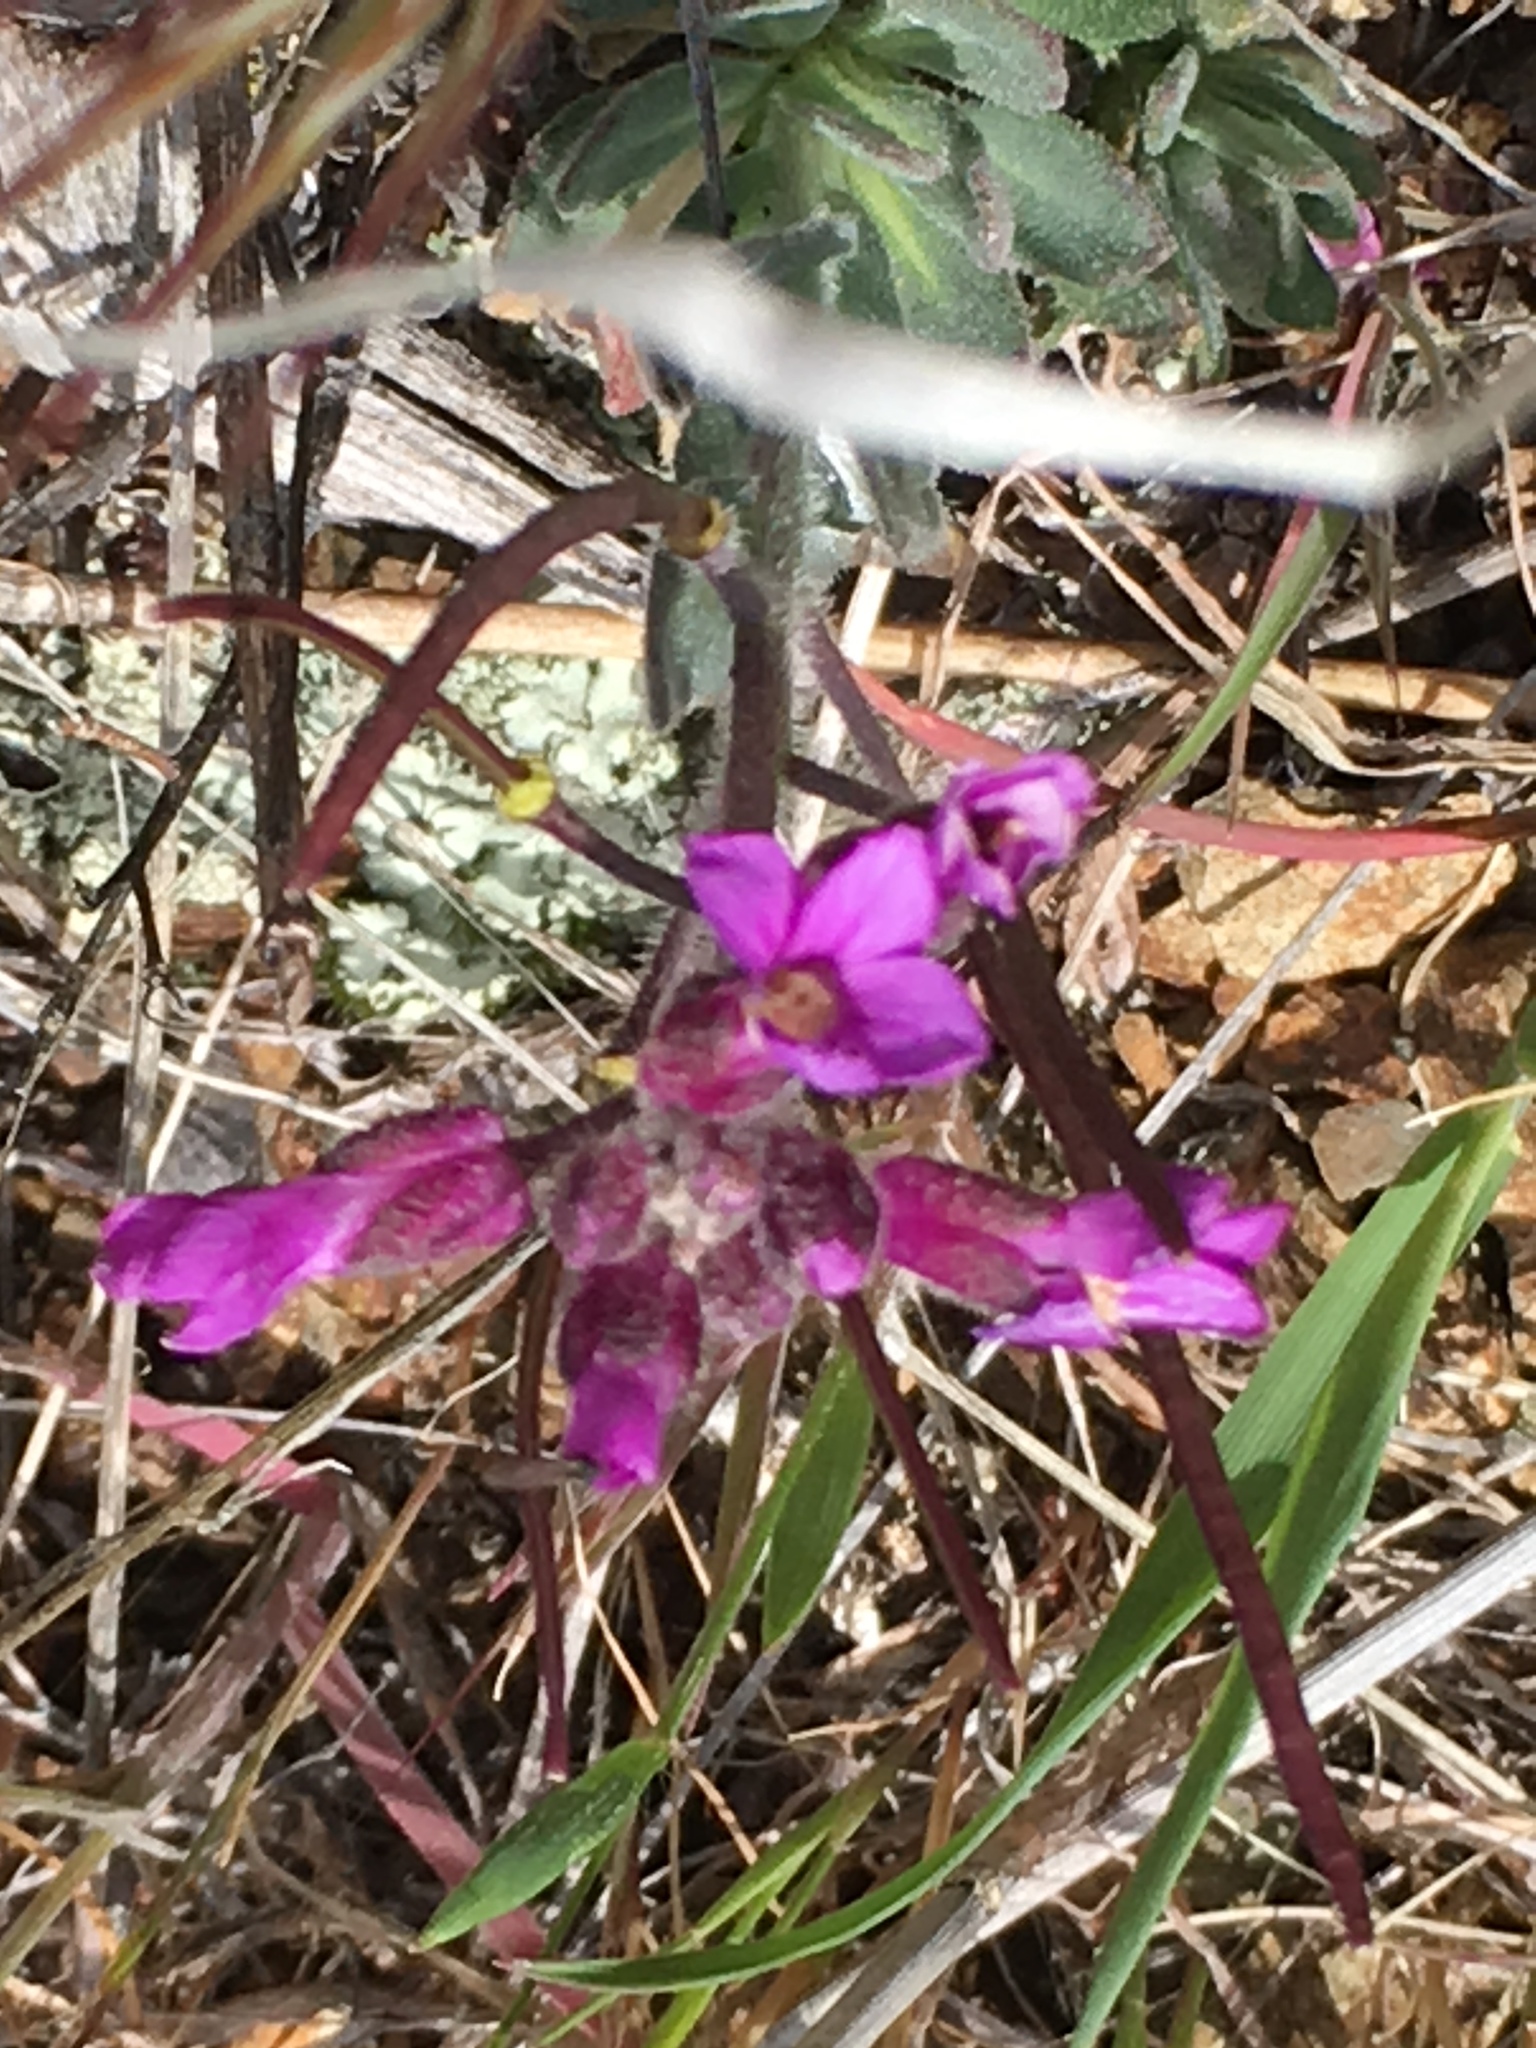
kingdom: Plantae
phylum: Tracheophyta
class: Magnoliopsida
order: Brassicales
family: Brassicaceae
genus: Boechera
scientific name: Boechera breweri
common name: Brewer's rockcress
